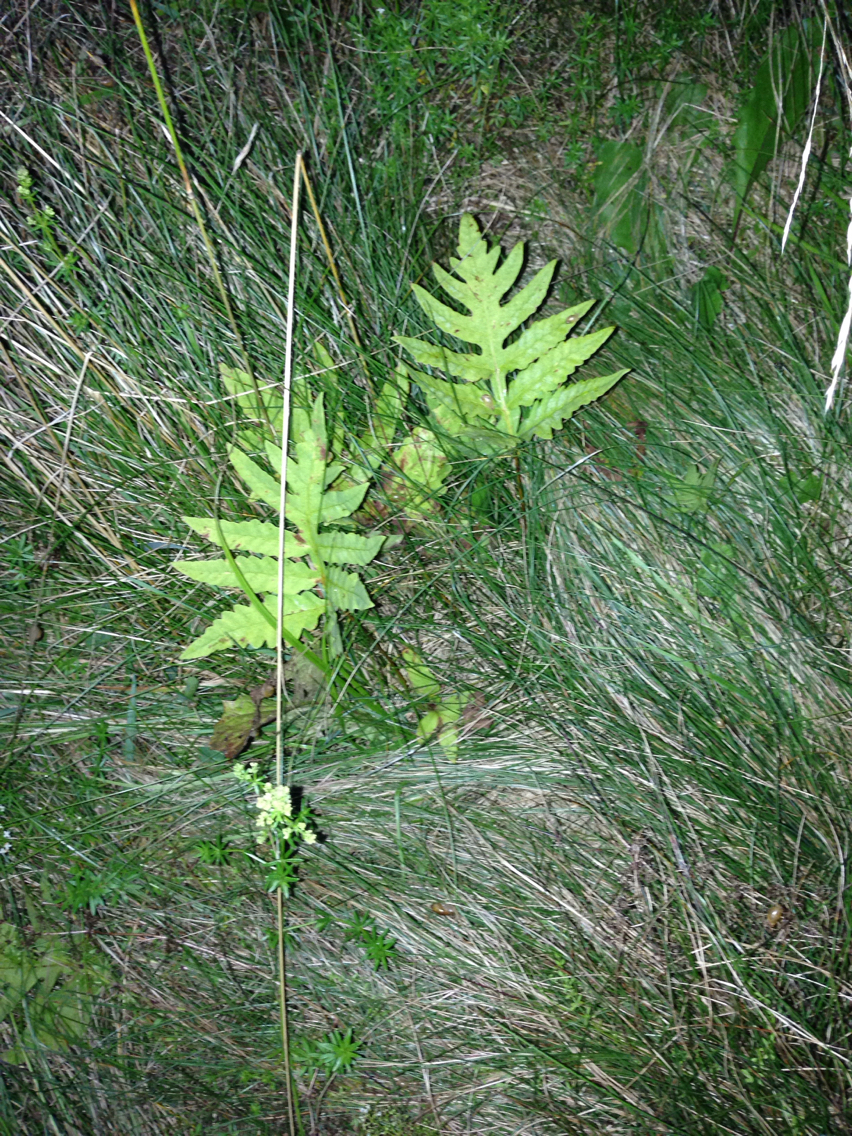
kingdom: Plantae
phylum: Tracheophyta
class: Polypodiopsida
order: Polypodiales
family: Onocleaceae
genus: Onoclea
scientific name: Onoclea sensibilis
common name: Sensitive fern
